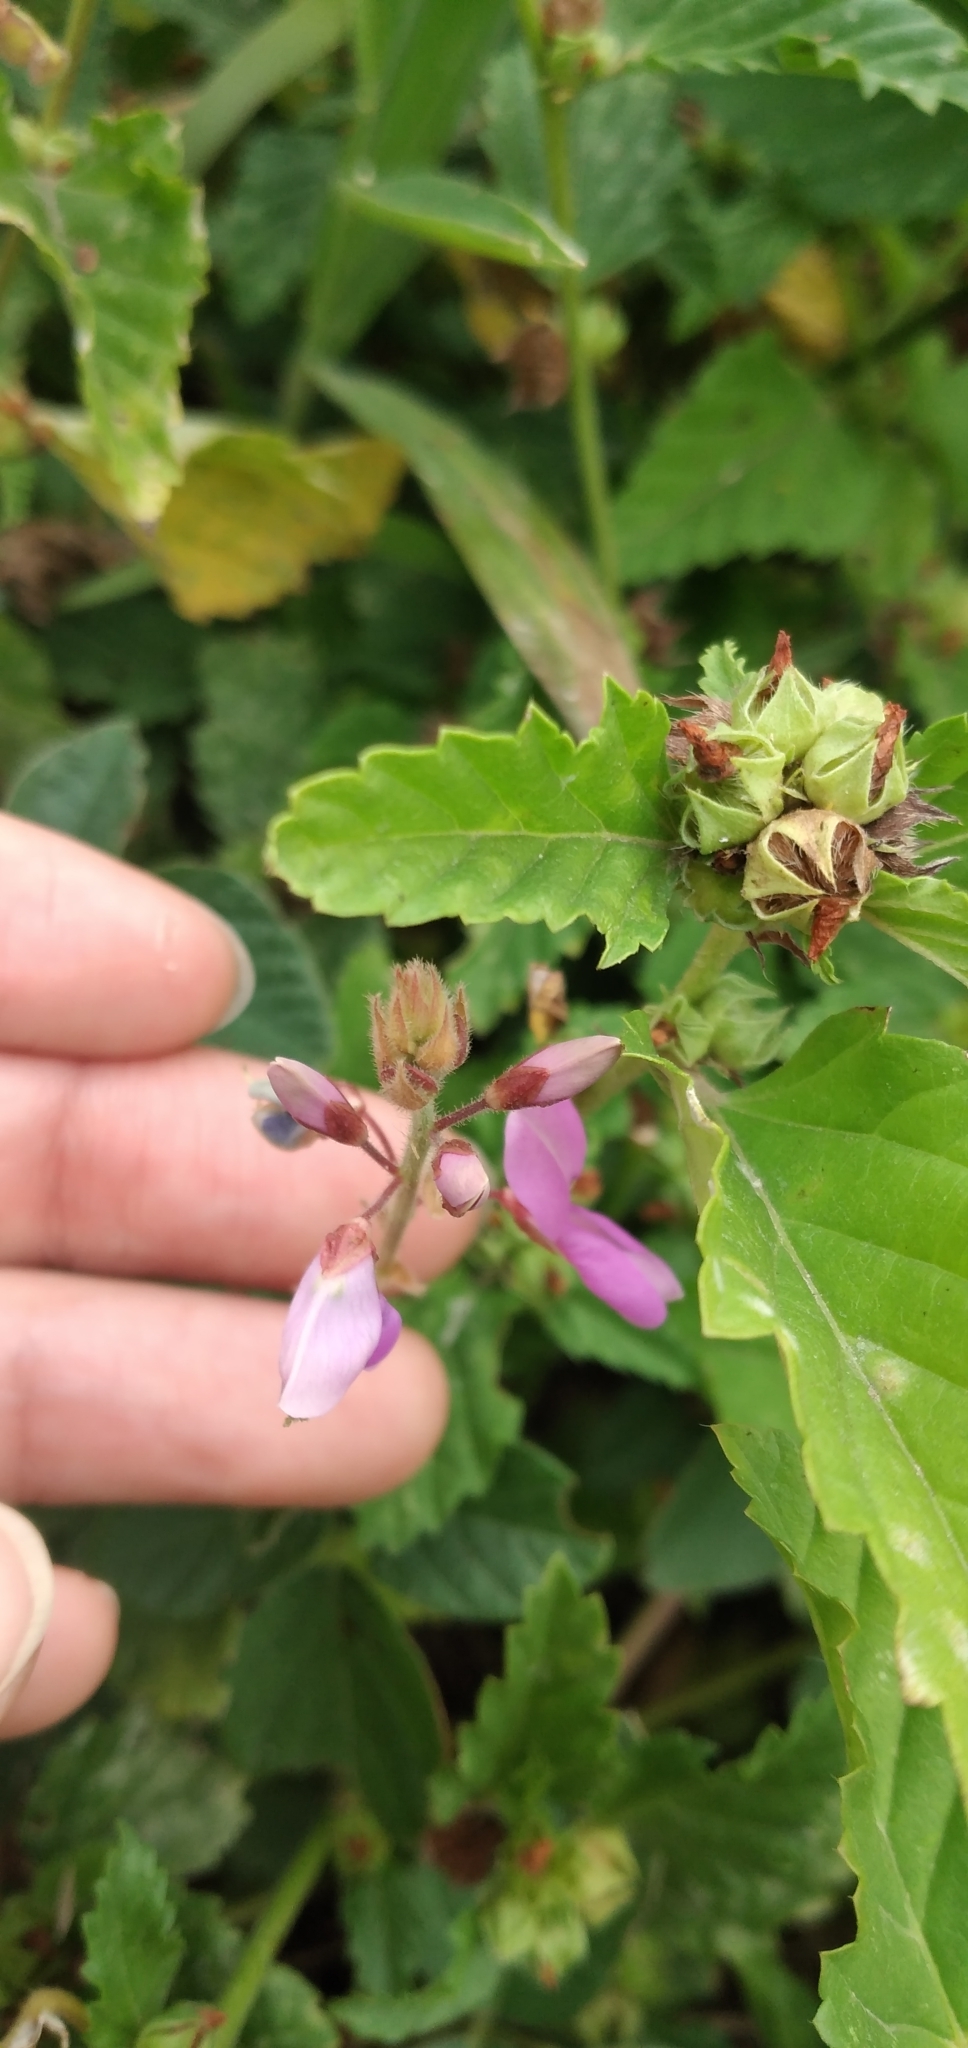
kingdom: Plantae
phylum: Tracheophyta
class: Magnoliopsida
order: Fabales
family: Fabaceae
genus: Desmodium
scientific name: Desmodium subsericeum
